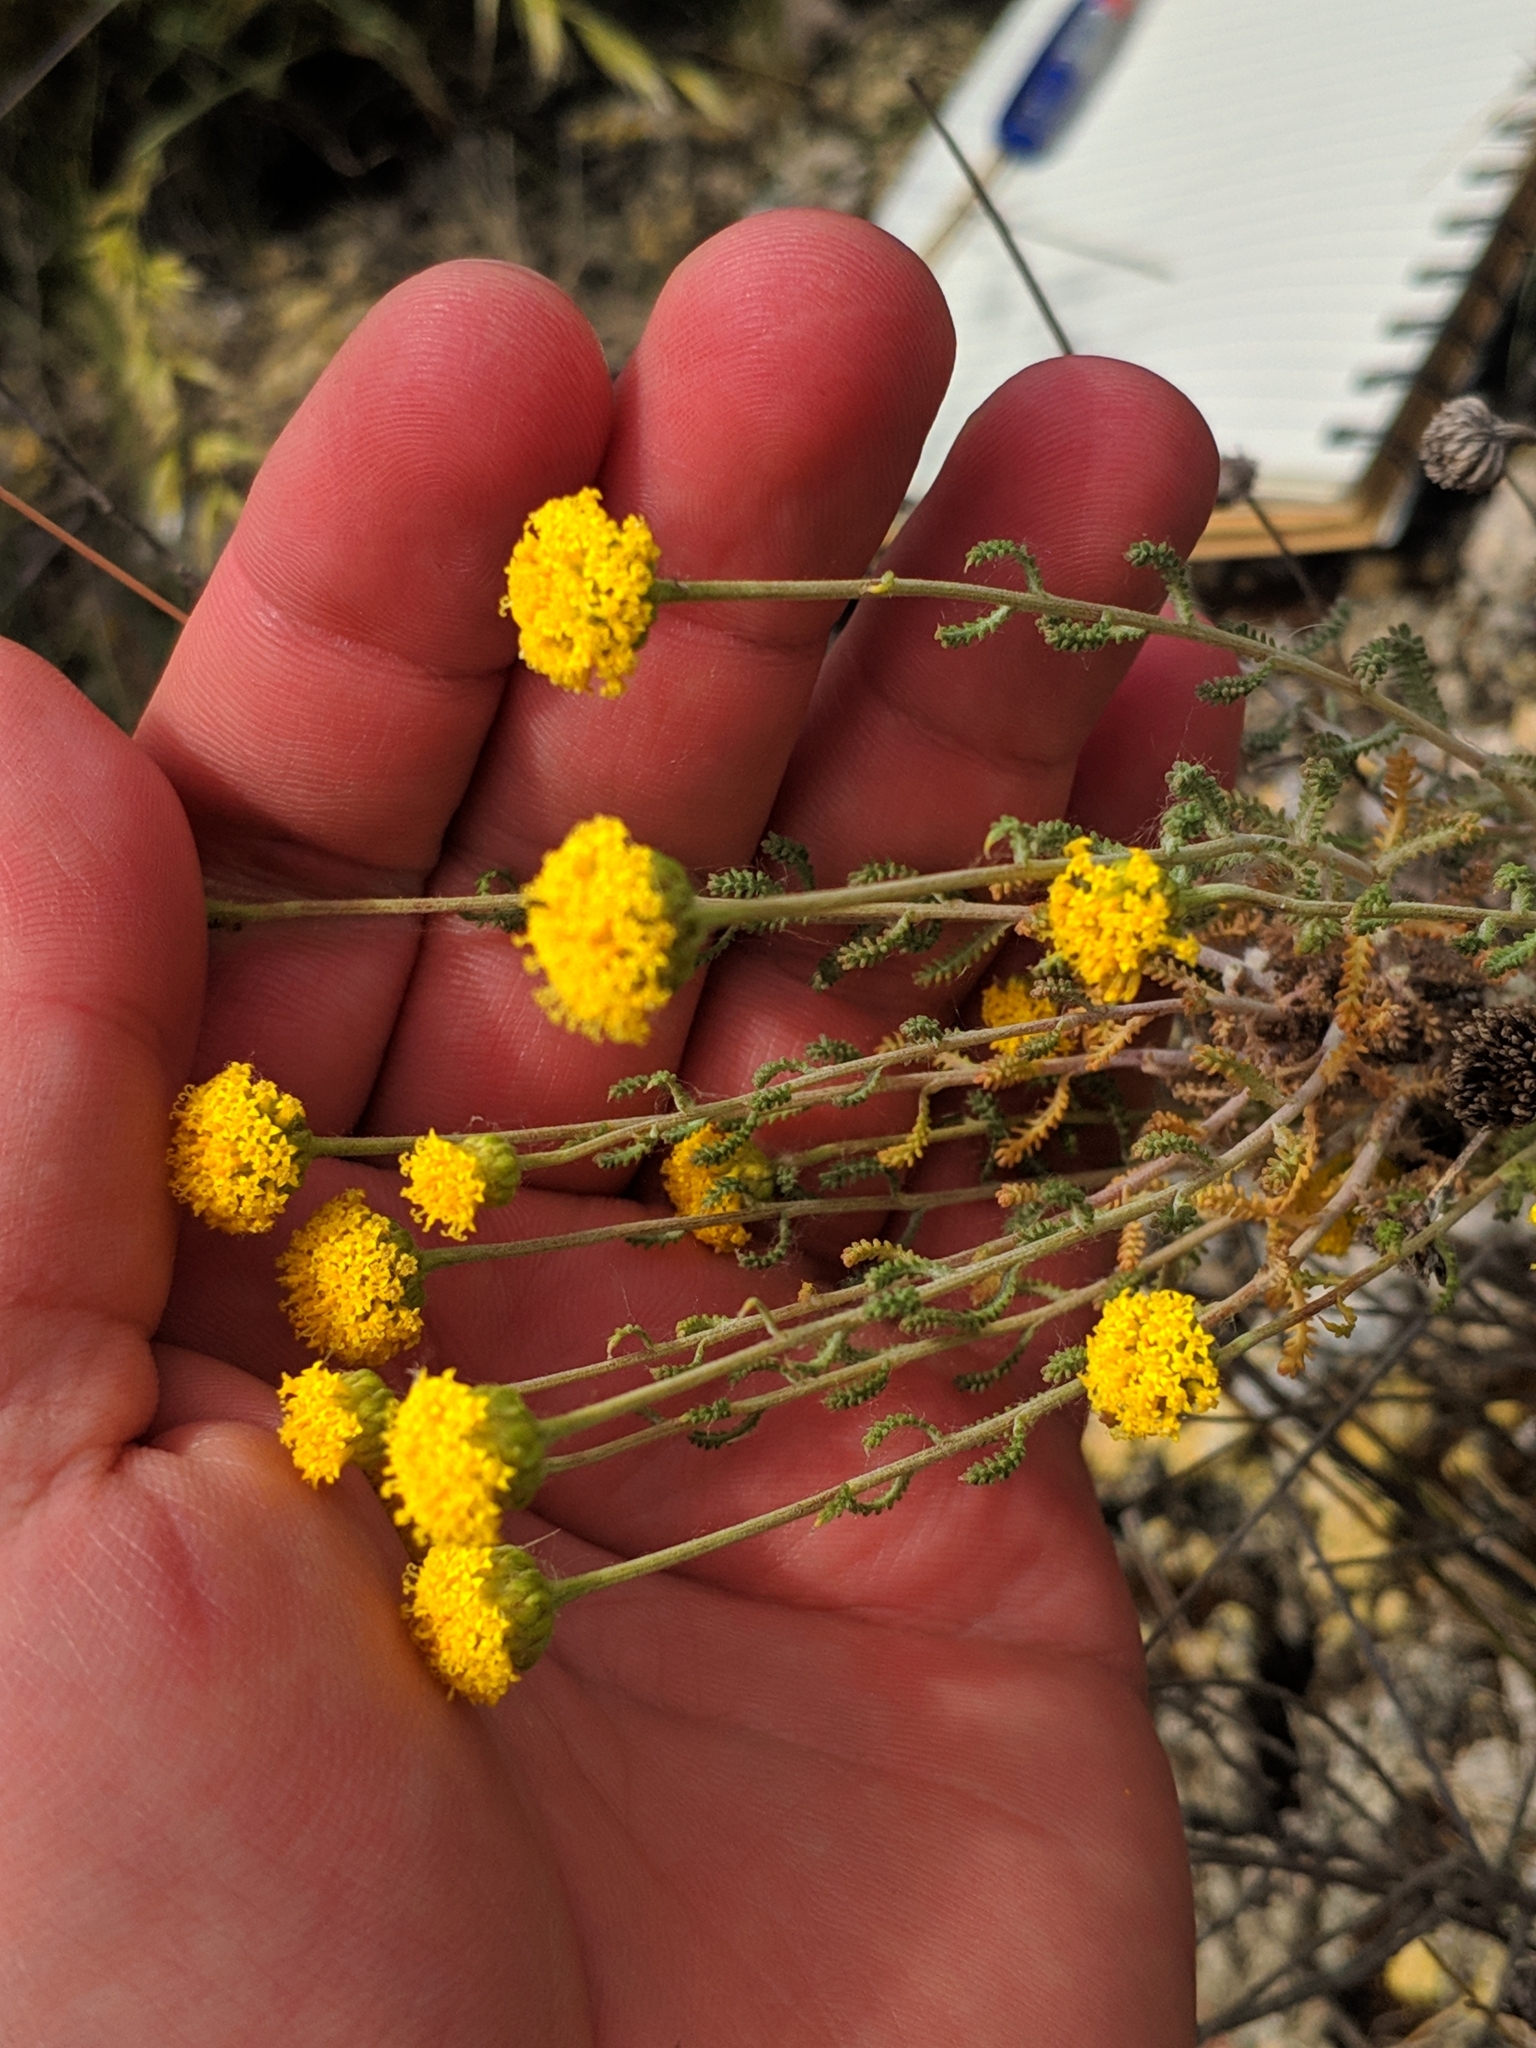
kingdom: Plantae
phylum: Tracheophyta
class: Magnoliopsida
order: Asterales
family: Asteraceae
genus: Santolina
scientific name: Santolina ericoides
